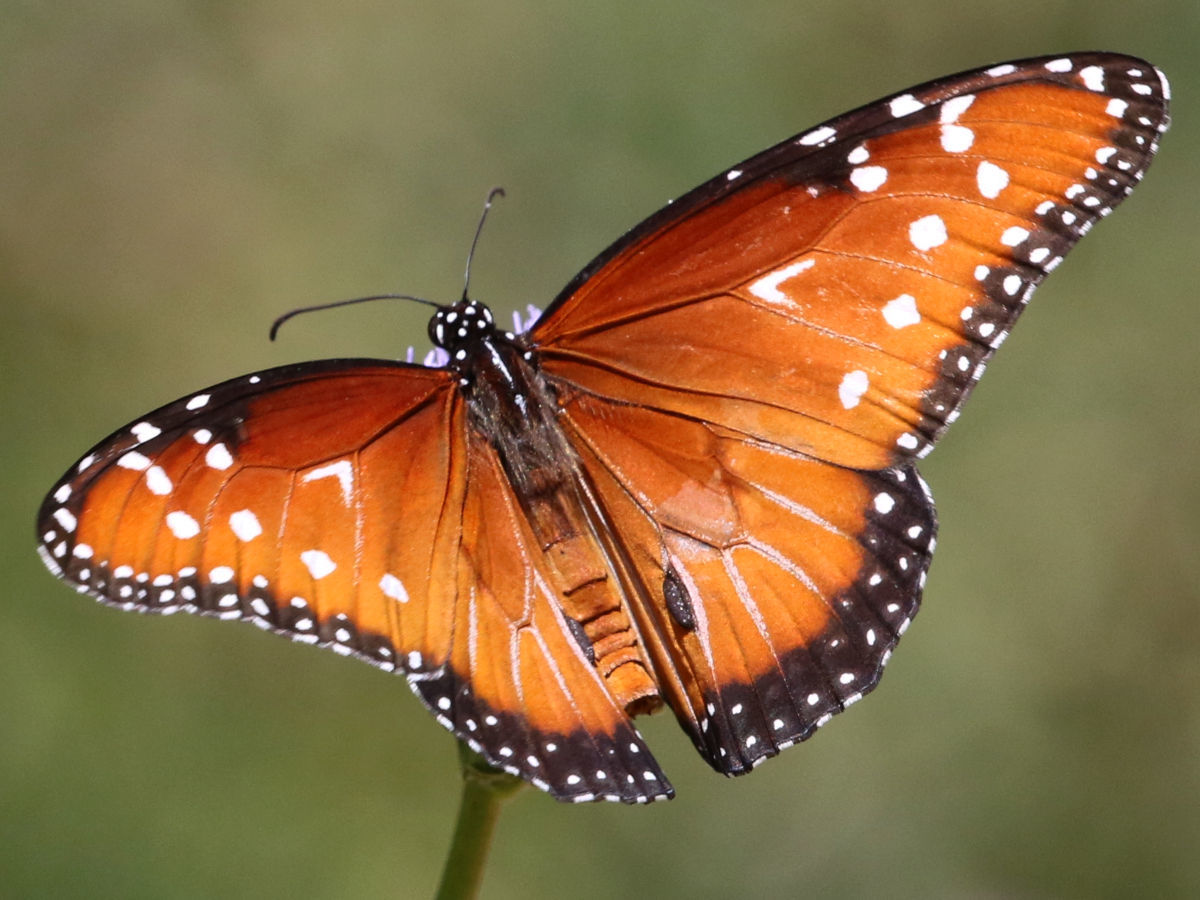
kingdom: Animalia
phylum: Arthropoda
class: Insecta
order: Lepidoptera
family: Nymphalidae
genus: Danaus
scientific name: Danaus gilippus
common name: Queen
